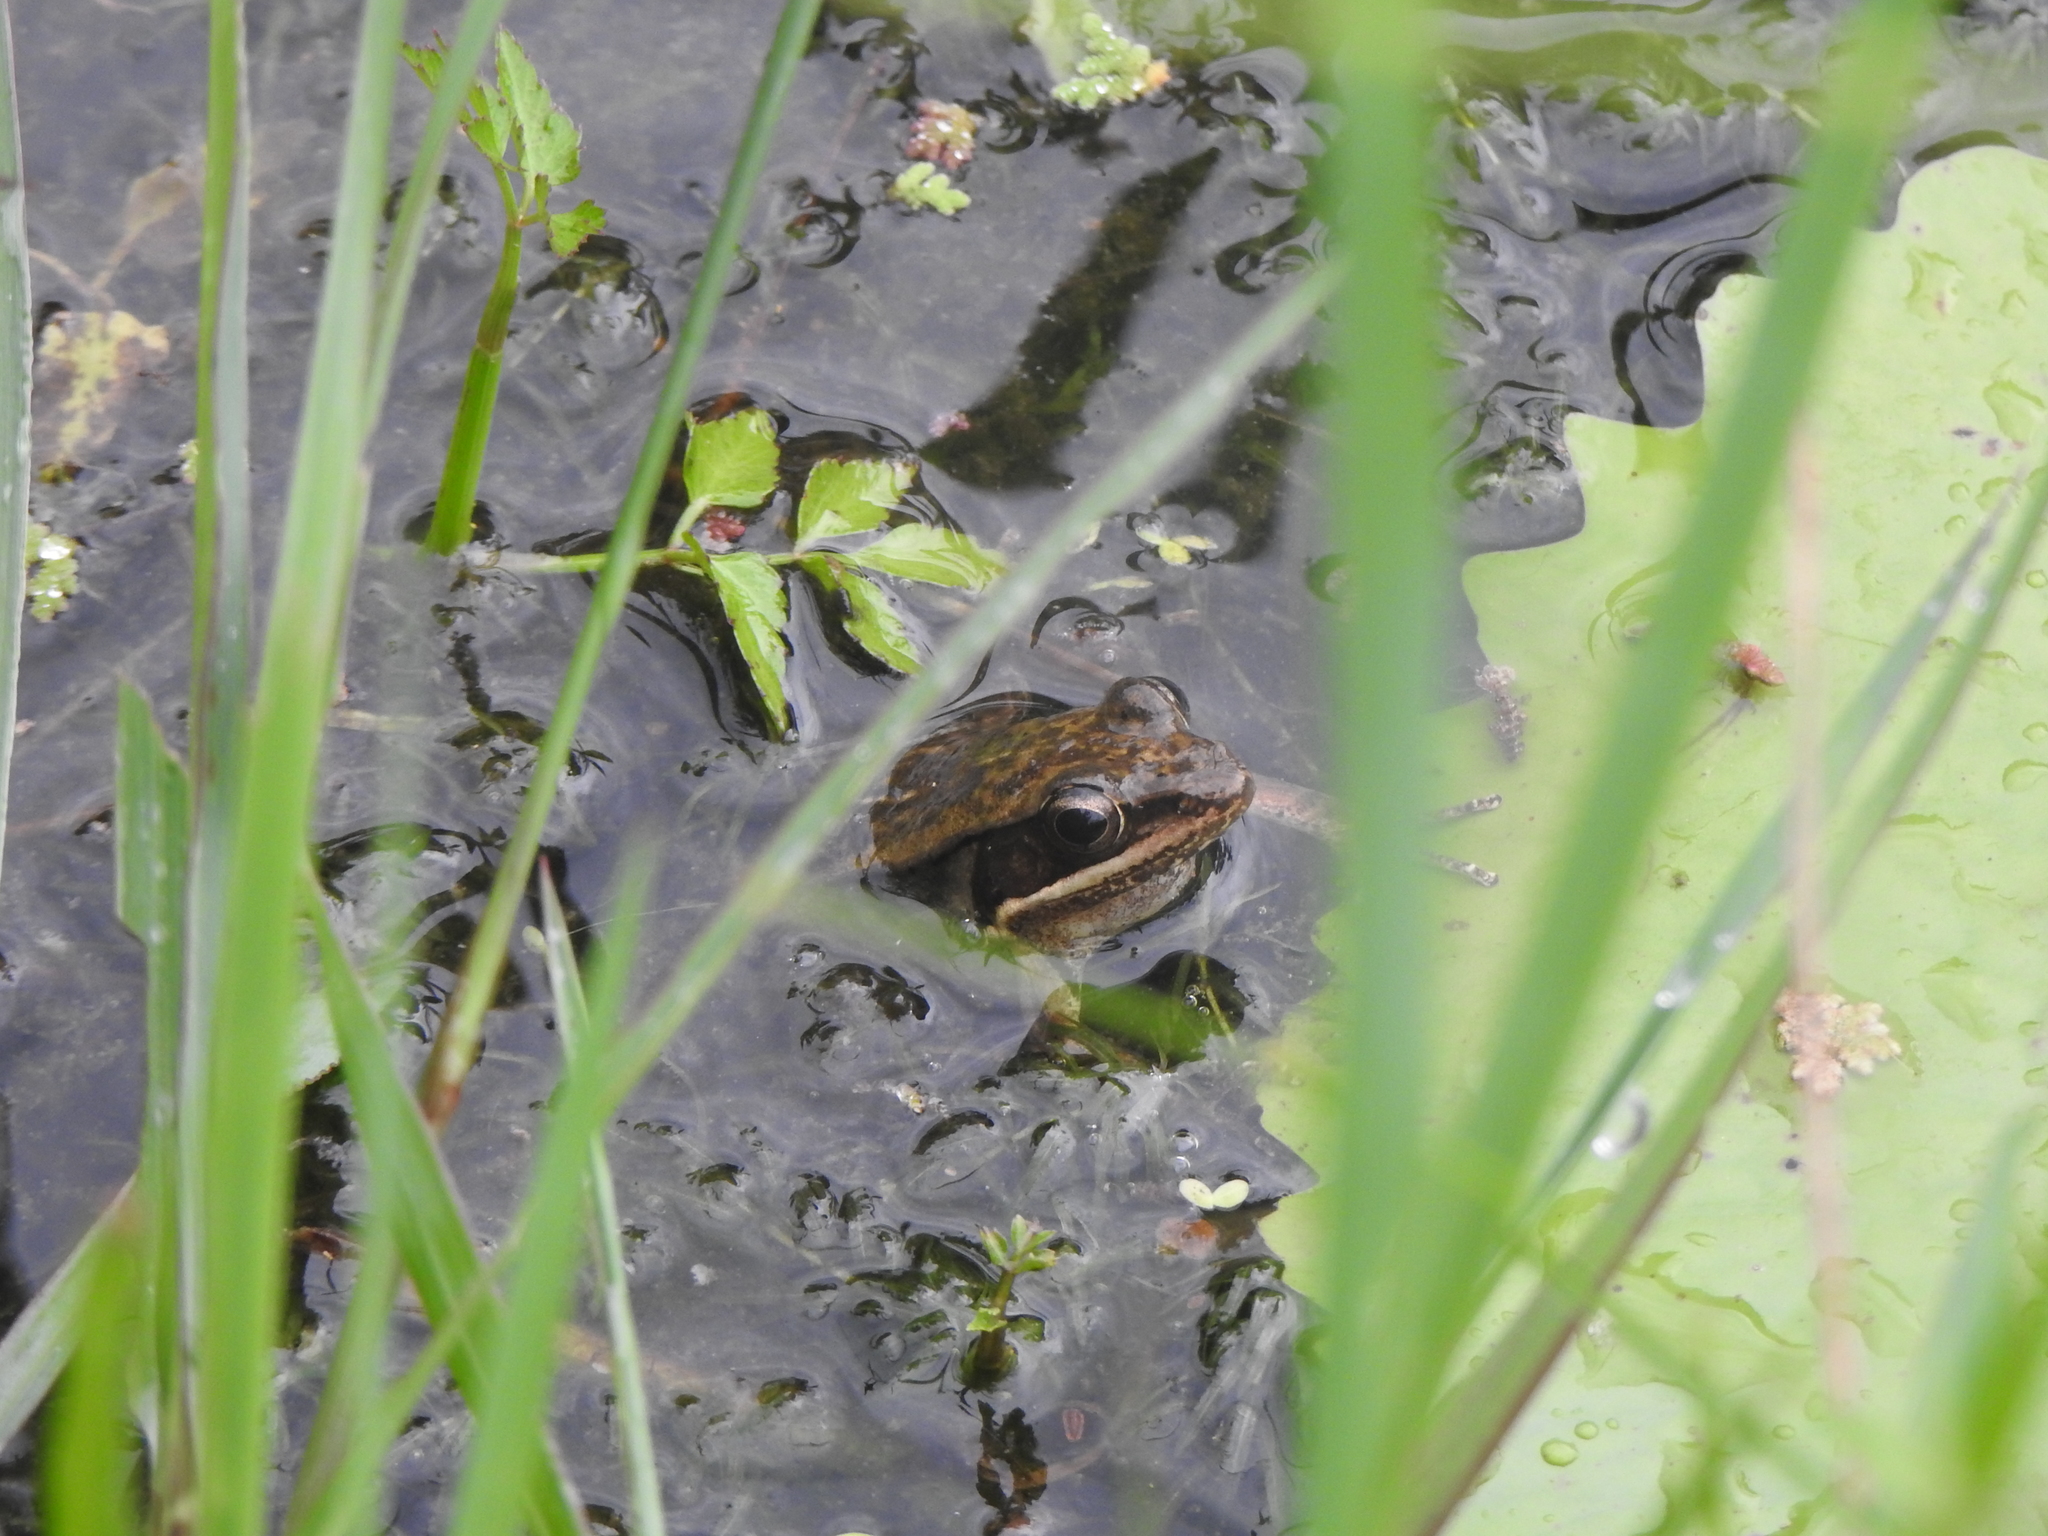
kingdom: Animalia
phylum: Chordata
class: Amphibia
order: Anura
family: Ranidae
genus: Nidirana
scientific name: Nidirana adenopleura
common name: Olive frog
